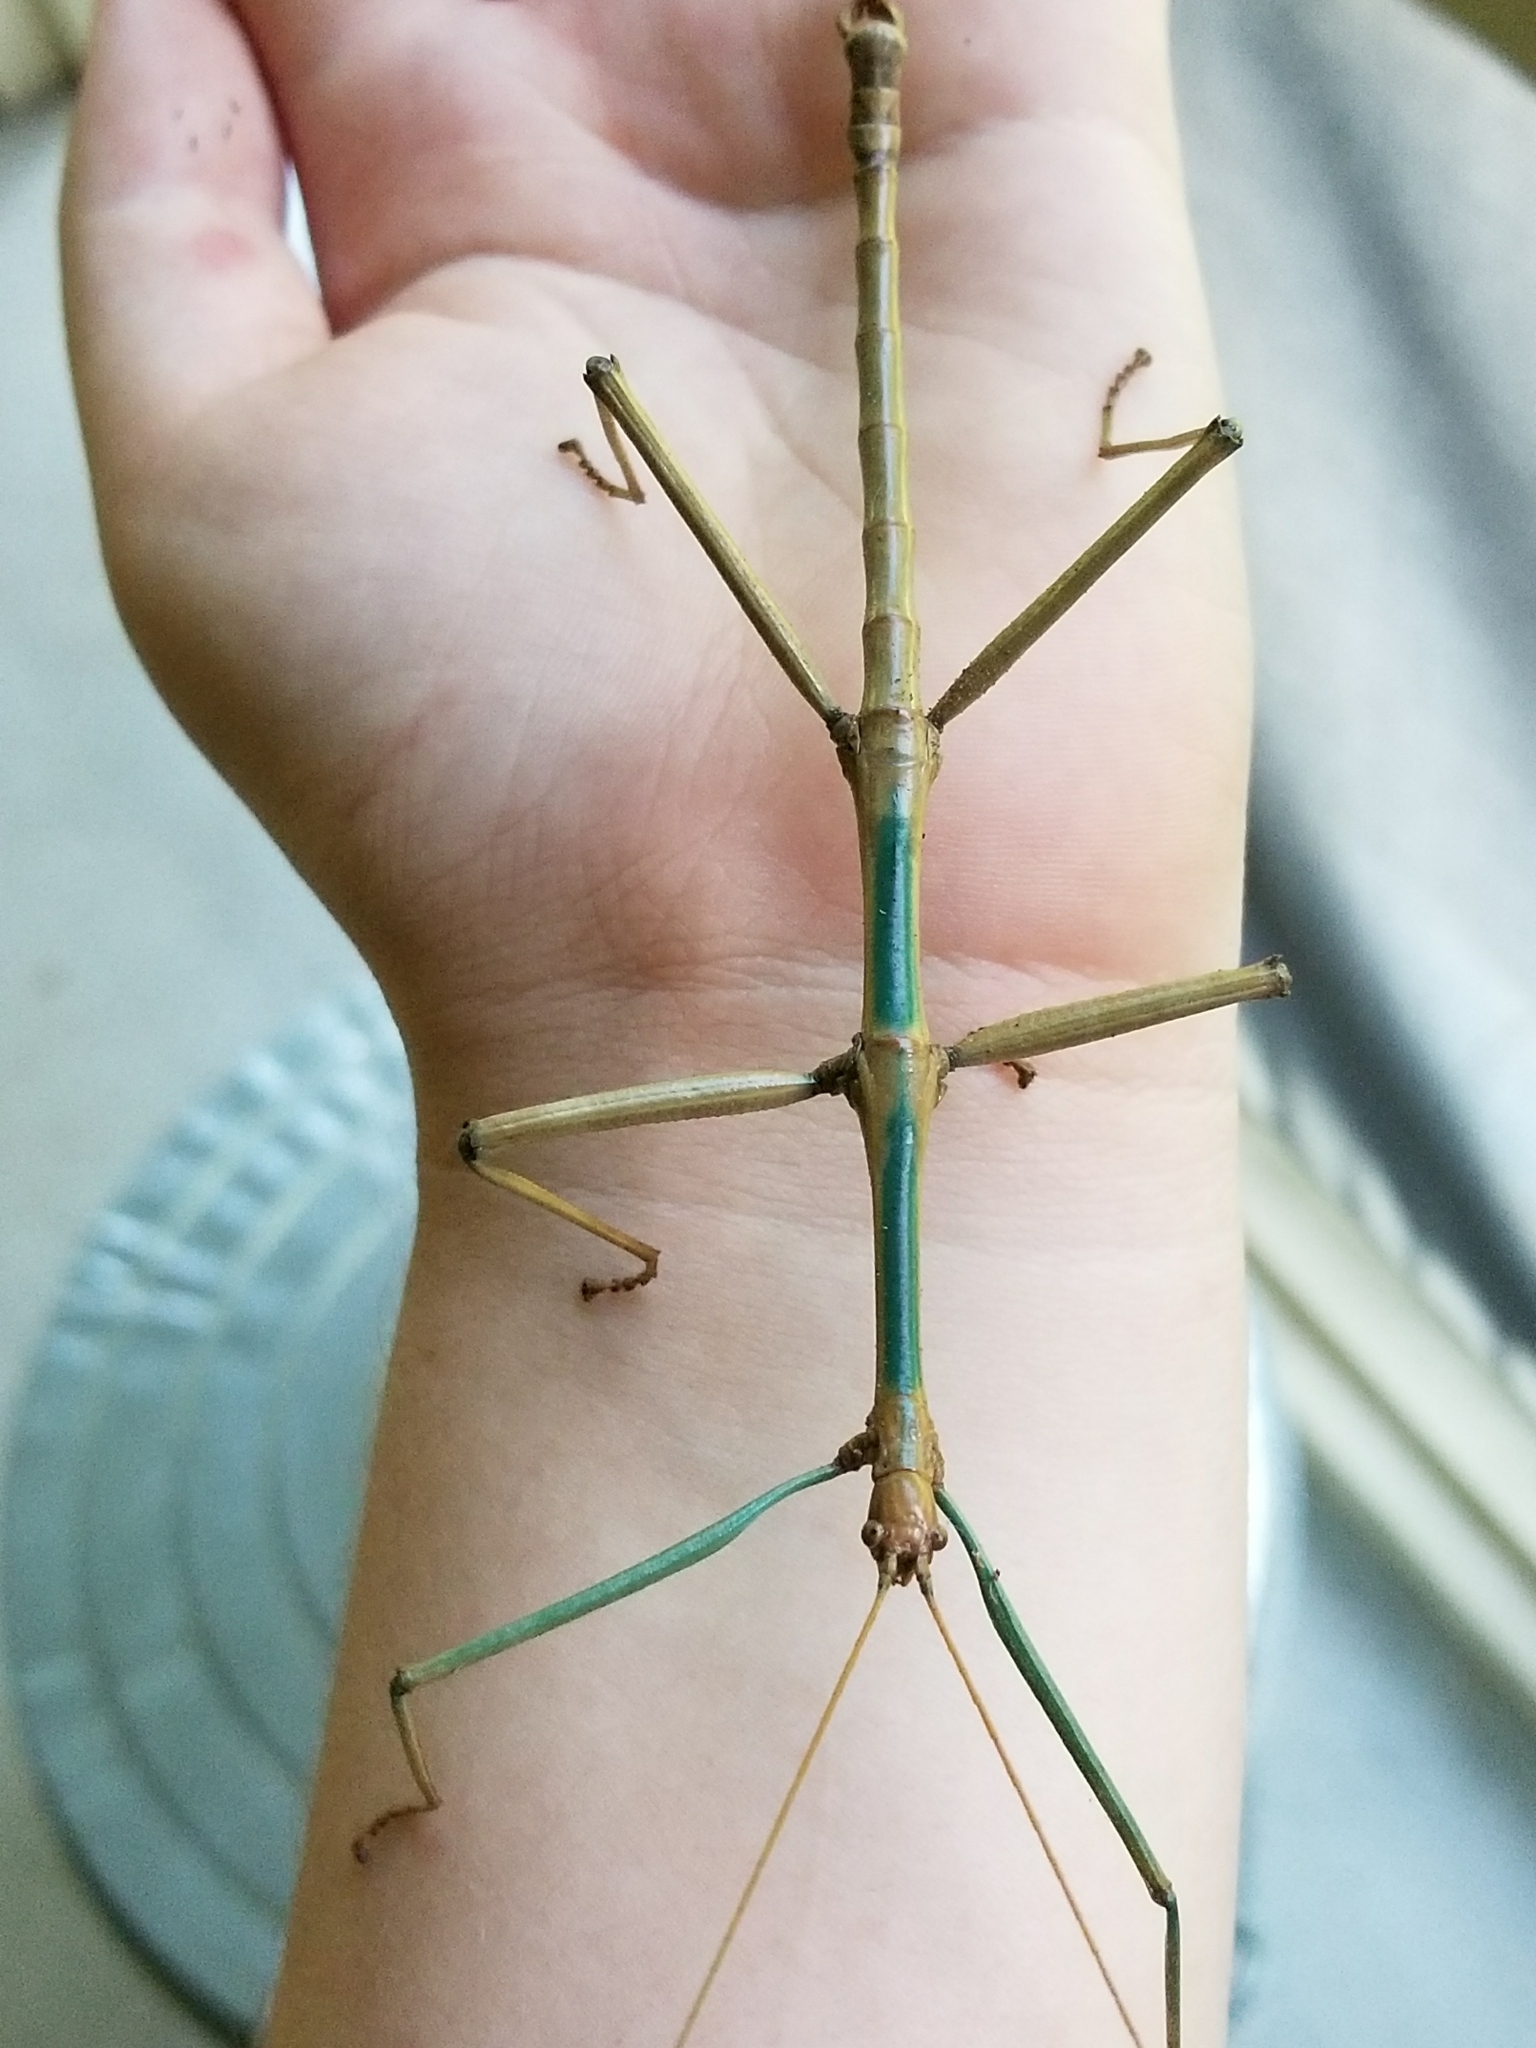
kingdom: Animalia
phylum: Arthropoda
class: Insecta
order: Phasmida
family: Diapheromeridae
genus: Megaphasma
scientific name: Megaphasma denticrus
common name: Giant walkingstick
